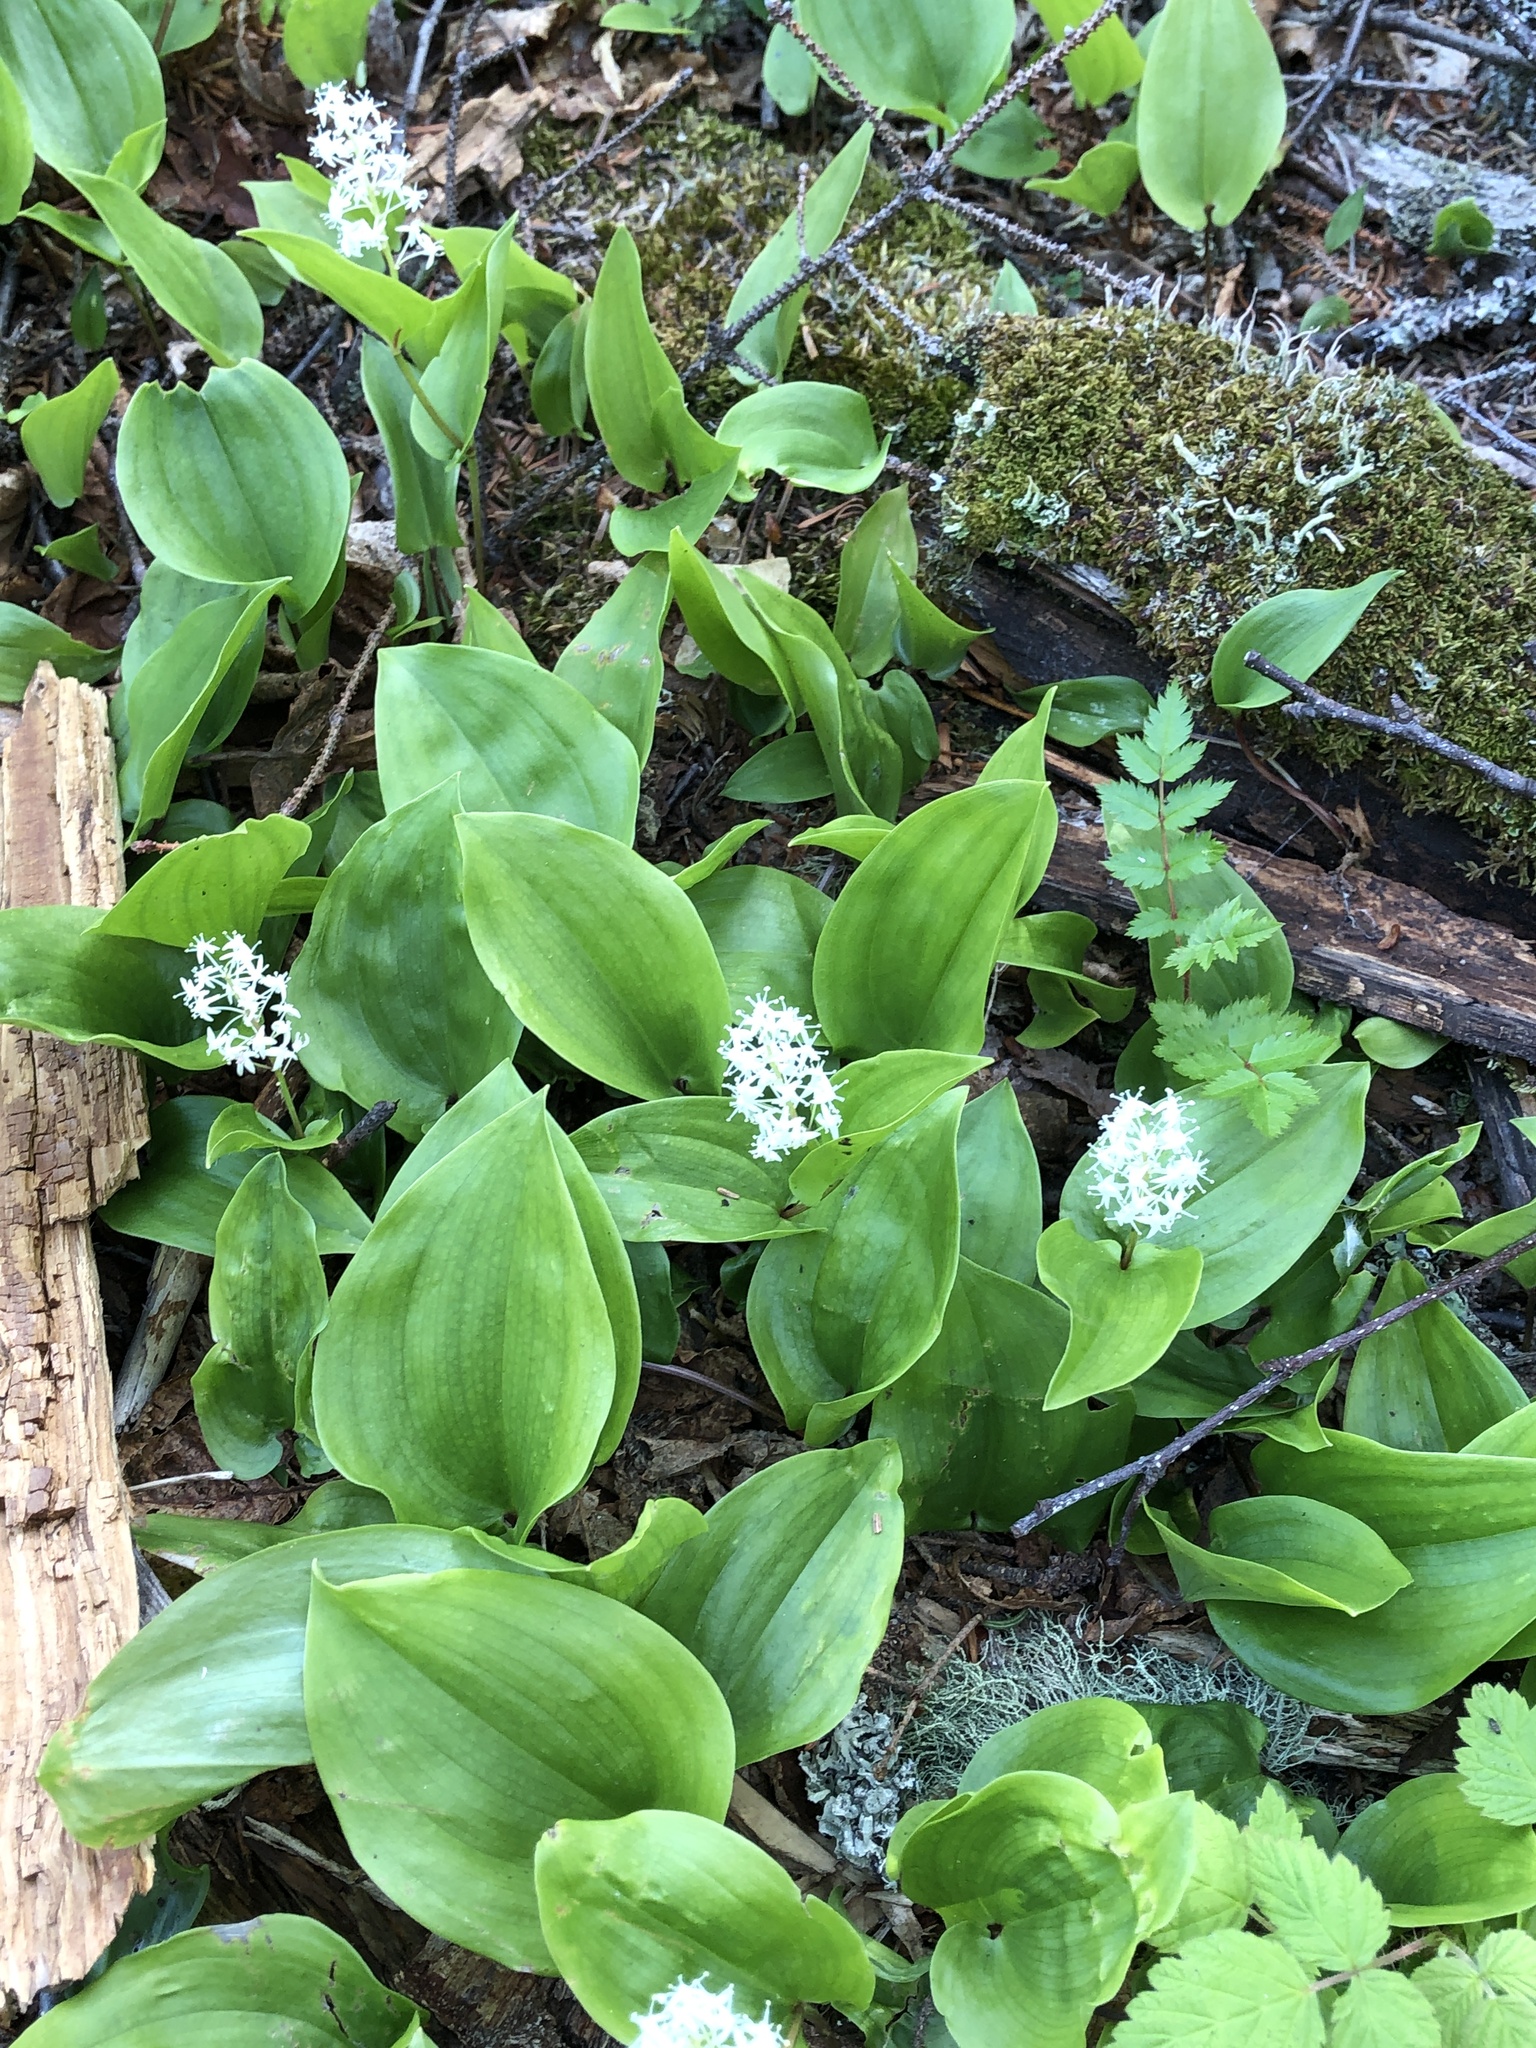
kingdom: Plantae
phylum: Tracheophyta
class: Liliopsida
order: Asparagales
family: Asparagaceae
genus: Maianthemum
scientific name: Maianthemum canadense
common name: False lily-of-the-valley
